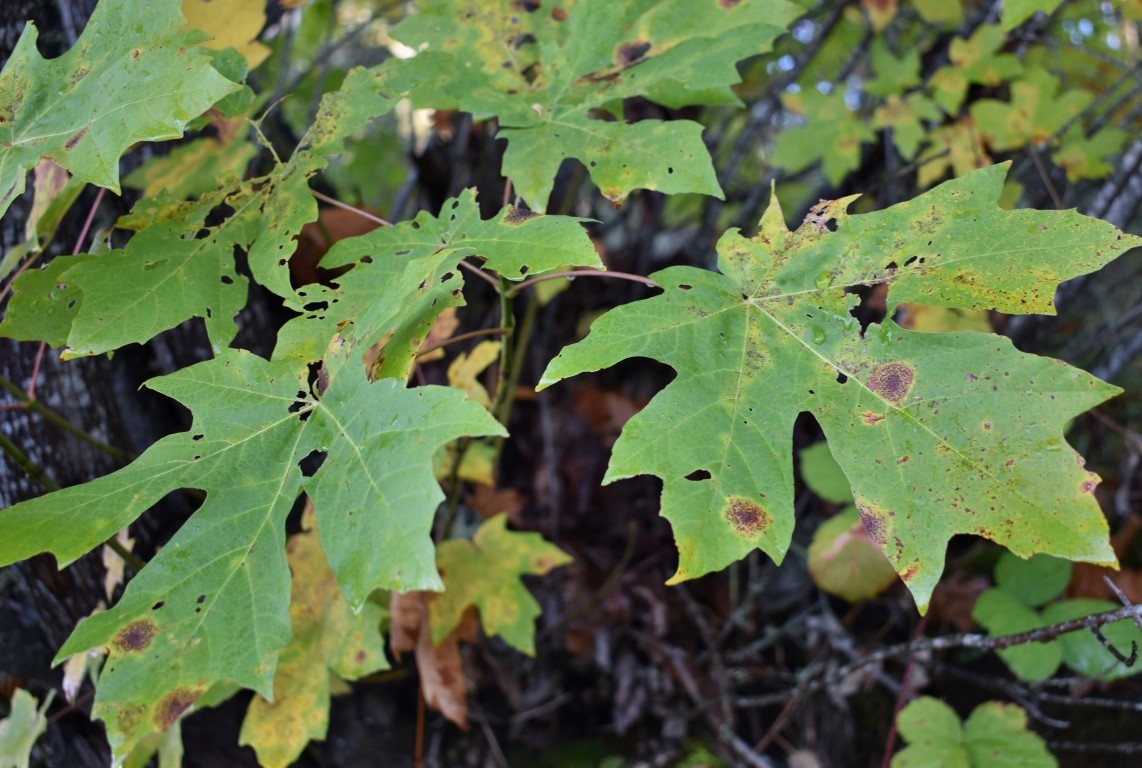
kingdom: Fungi
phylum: Ascomycota
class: Leotiomycetes
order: Rhytismatales
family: Rhytismataceae
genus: Rhytisma
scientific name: Rhytisma punctatum
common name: Speckled tar spot
